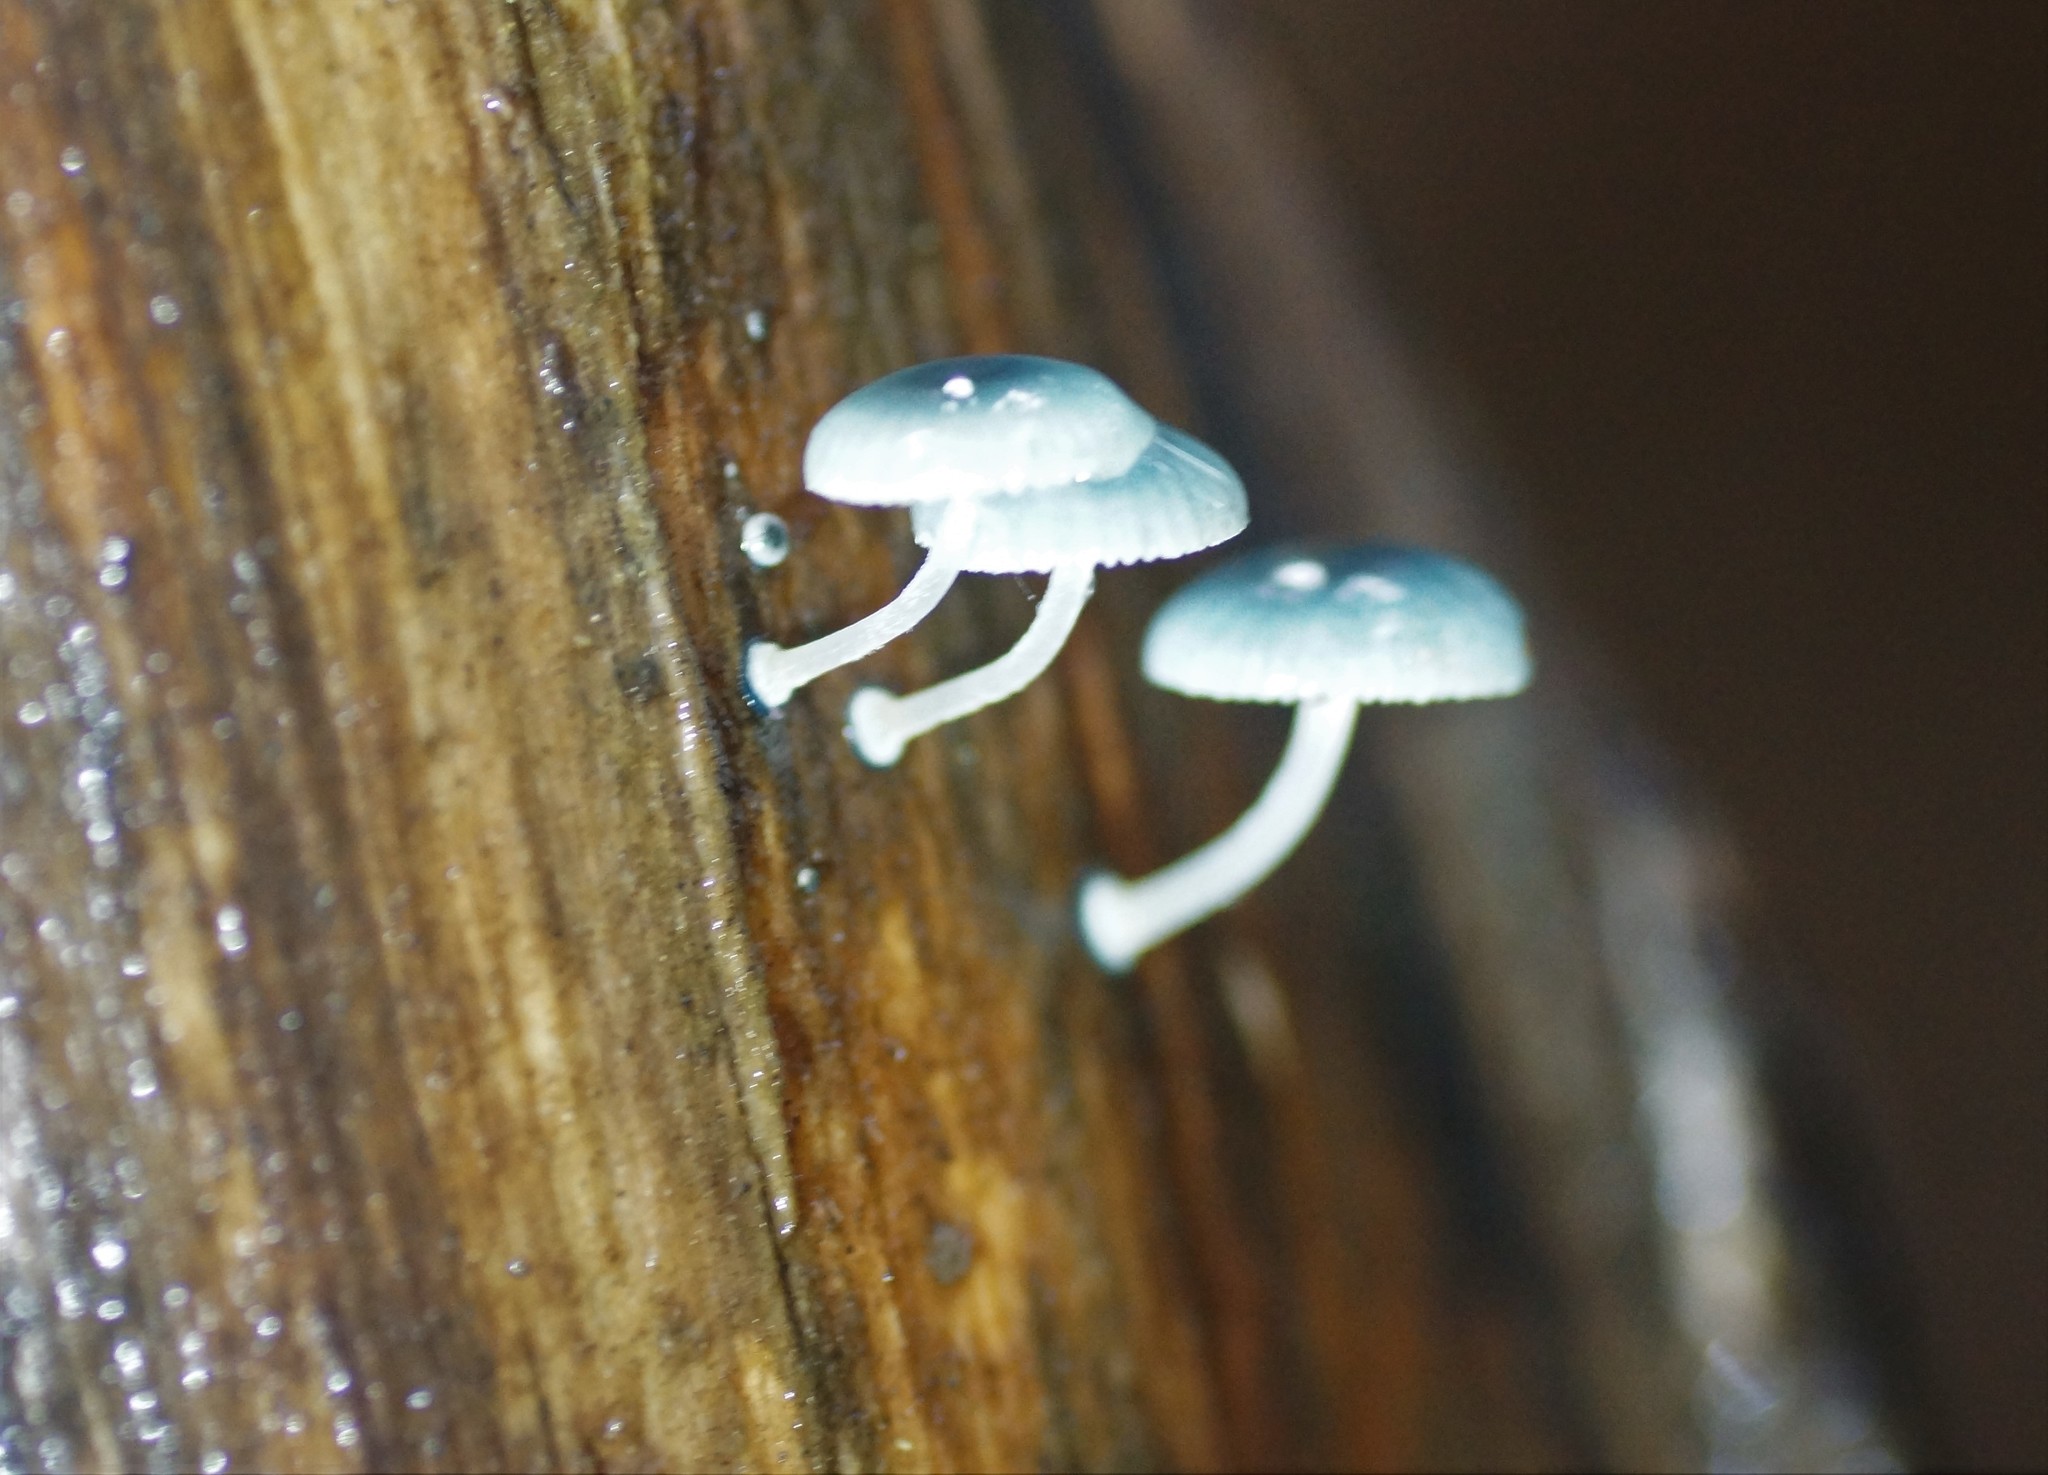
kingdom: Fungi
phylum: Basidiomycota
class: Agaricomycetes
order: Agaricales
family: Mycenaceae
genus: Mycena
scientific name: Mycena interrupta
